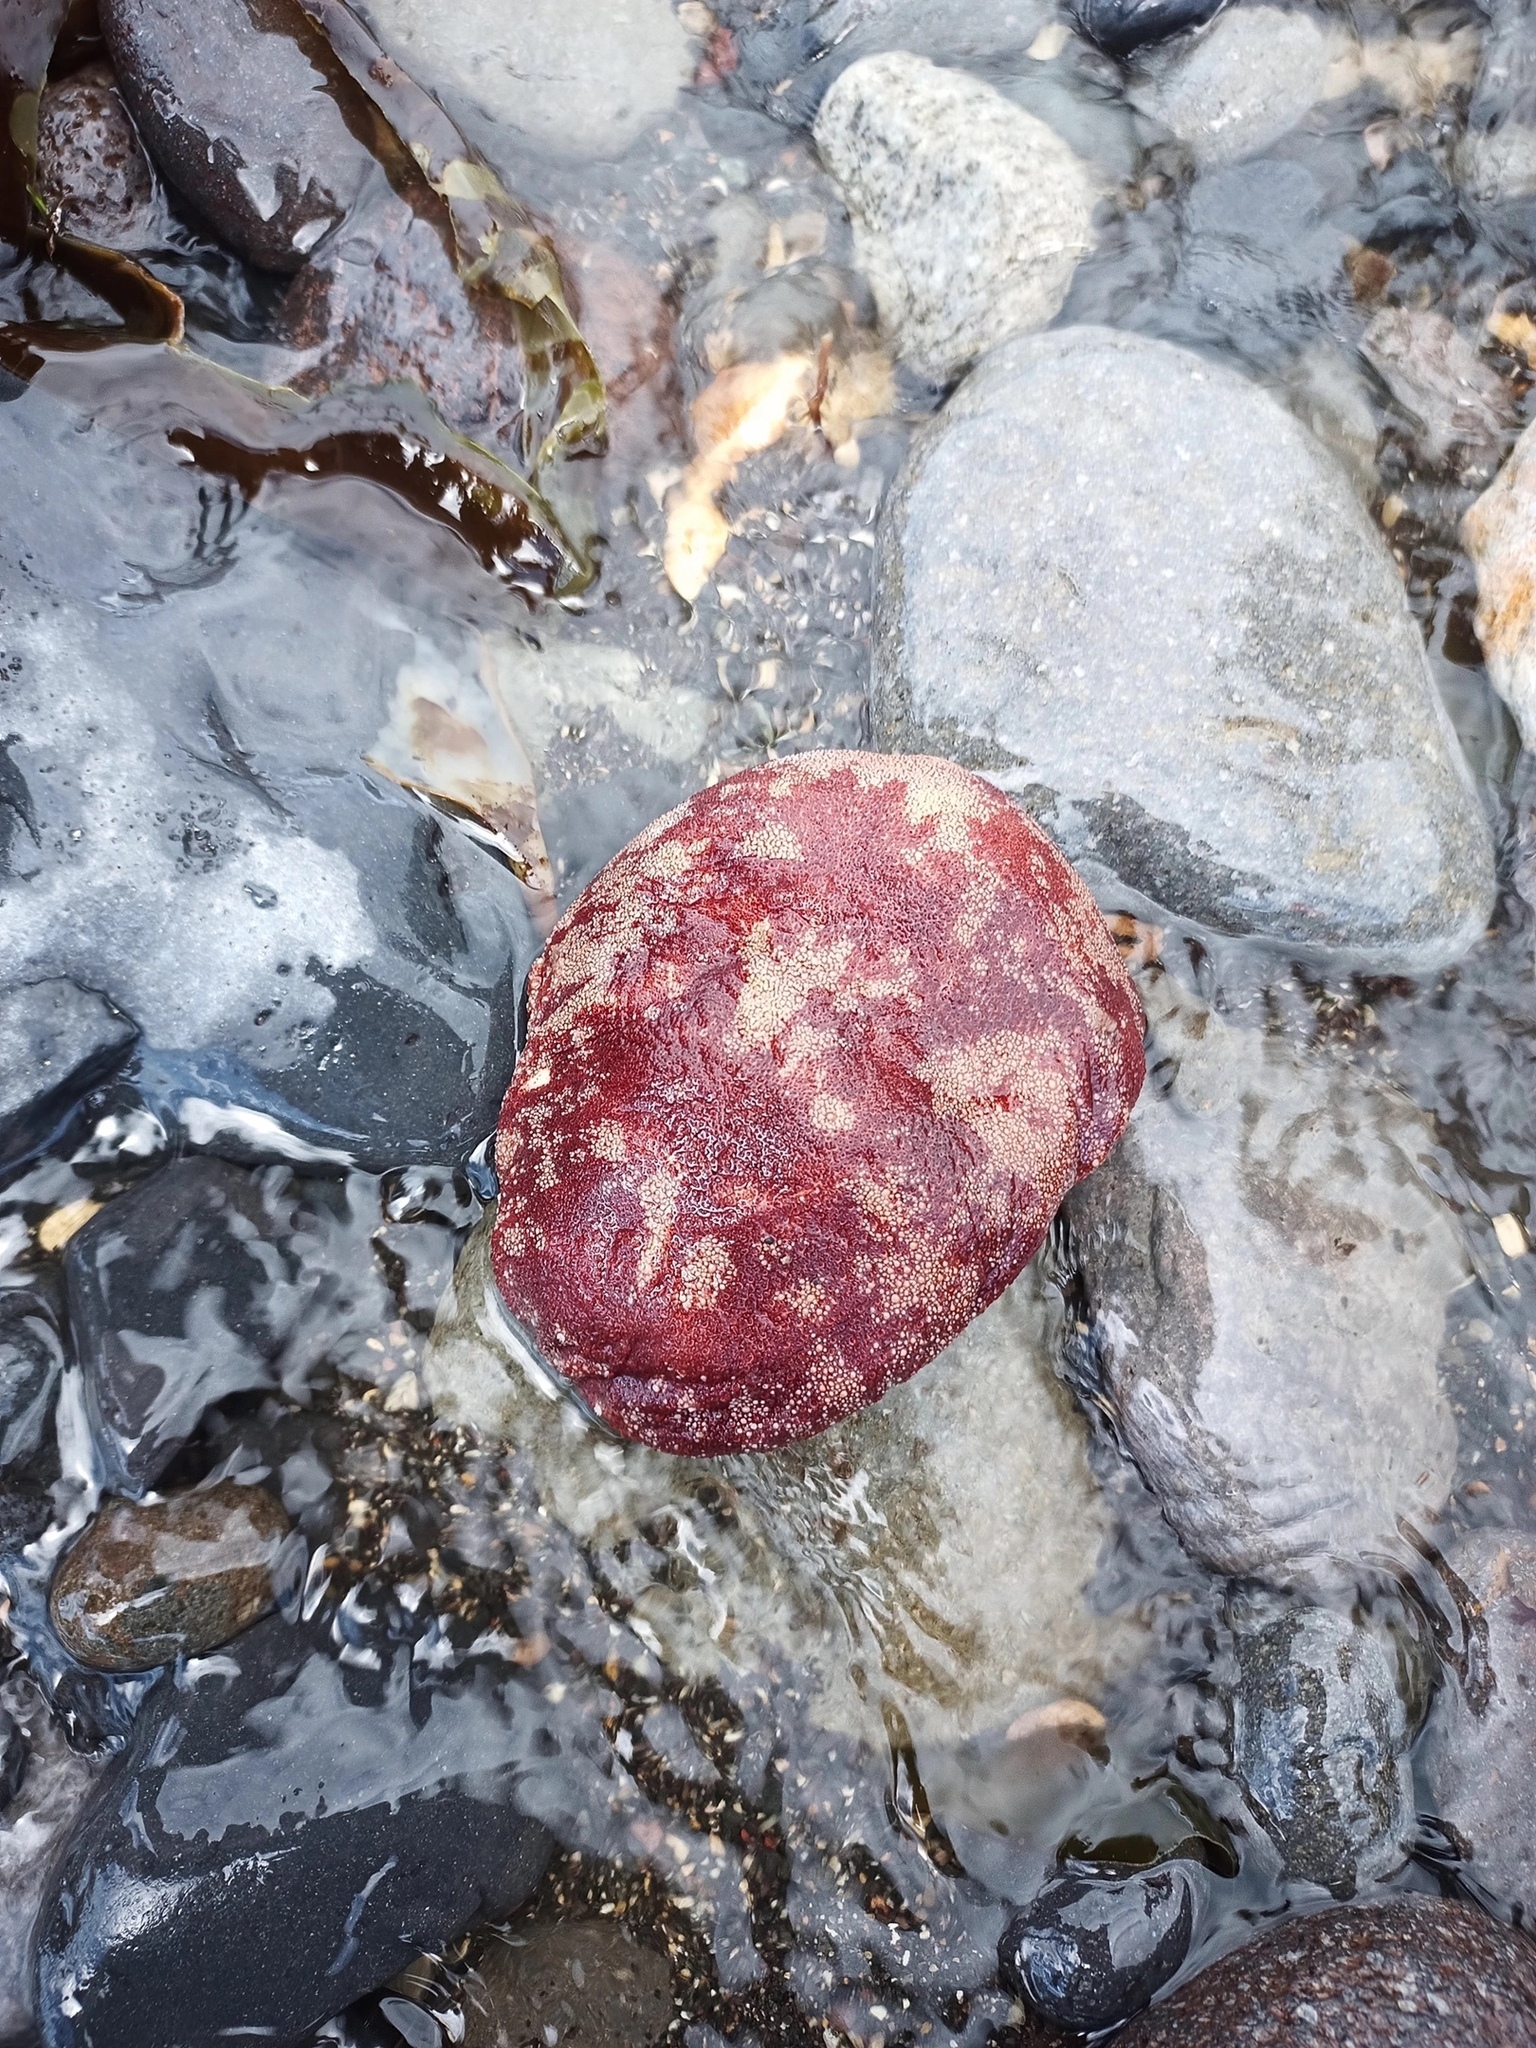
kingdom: Animalia
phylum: Mollusca
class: Polyplacophora
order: Chitonida
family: Acanthochitonidae
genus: Cryptochiton
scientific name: Cryptochiton stelleri
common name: Giant pacific chiton
